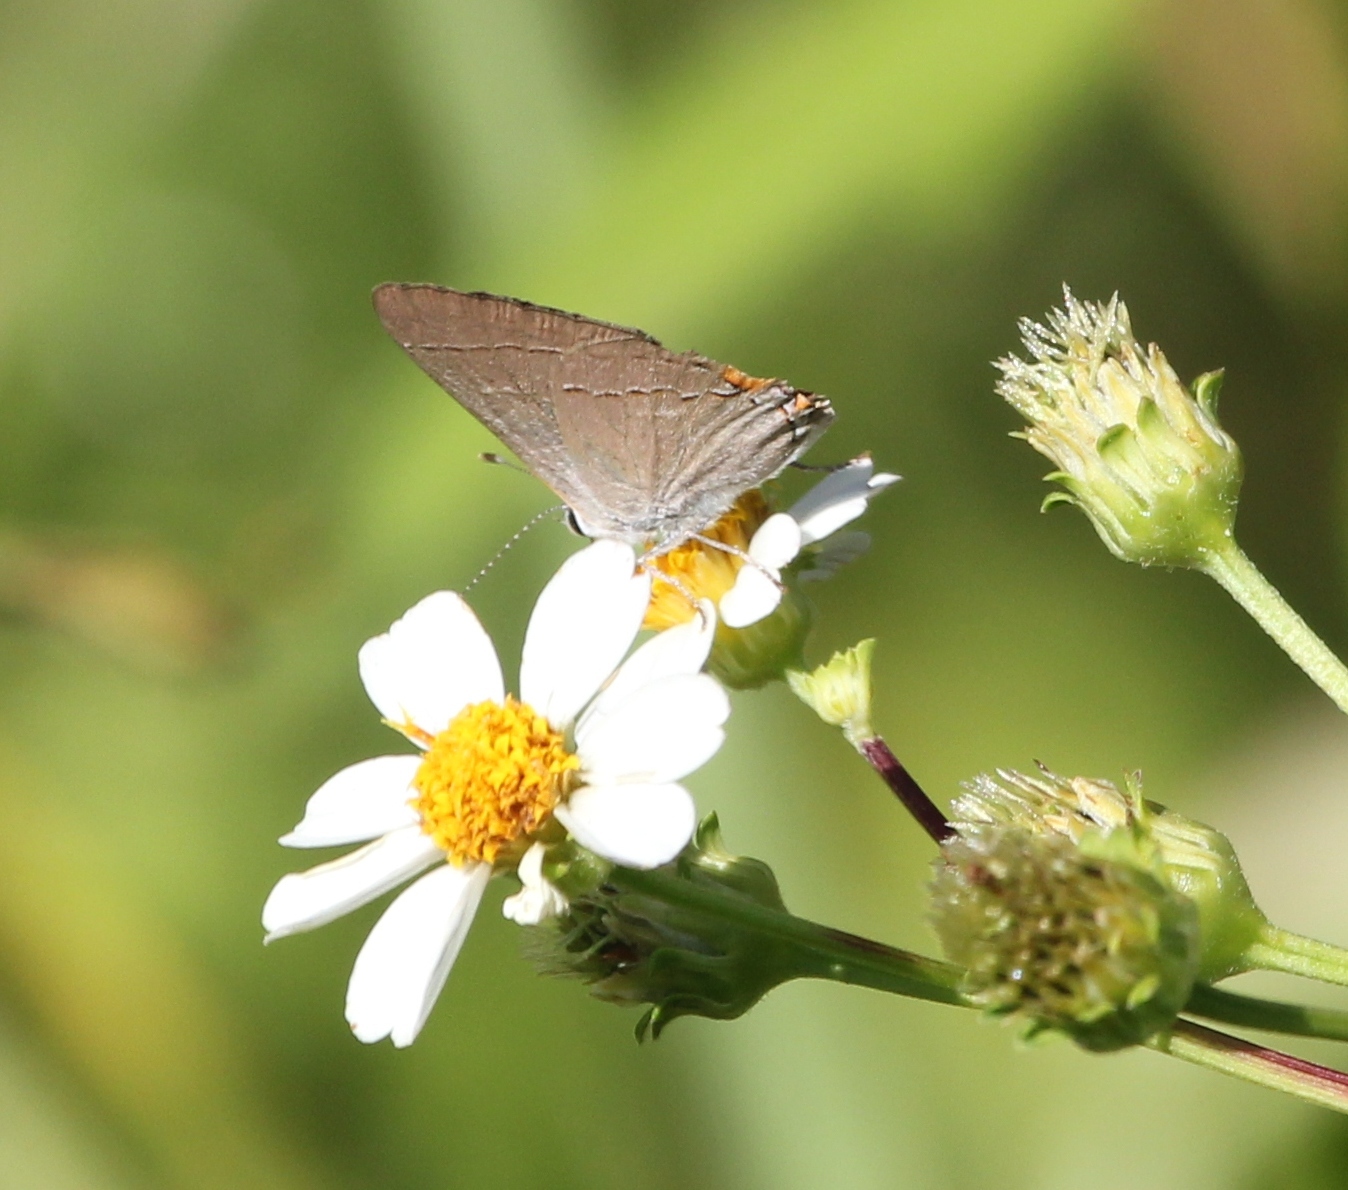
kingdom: Animalia
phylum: Arthropoda
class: Insecta
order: Lepidoptera
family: Lycaenidae
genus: Strymon
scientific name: Strymon melinus
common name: Gray hairstreak
